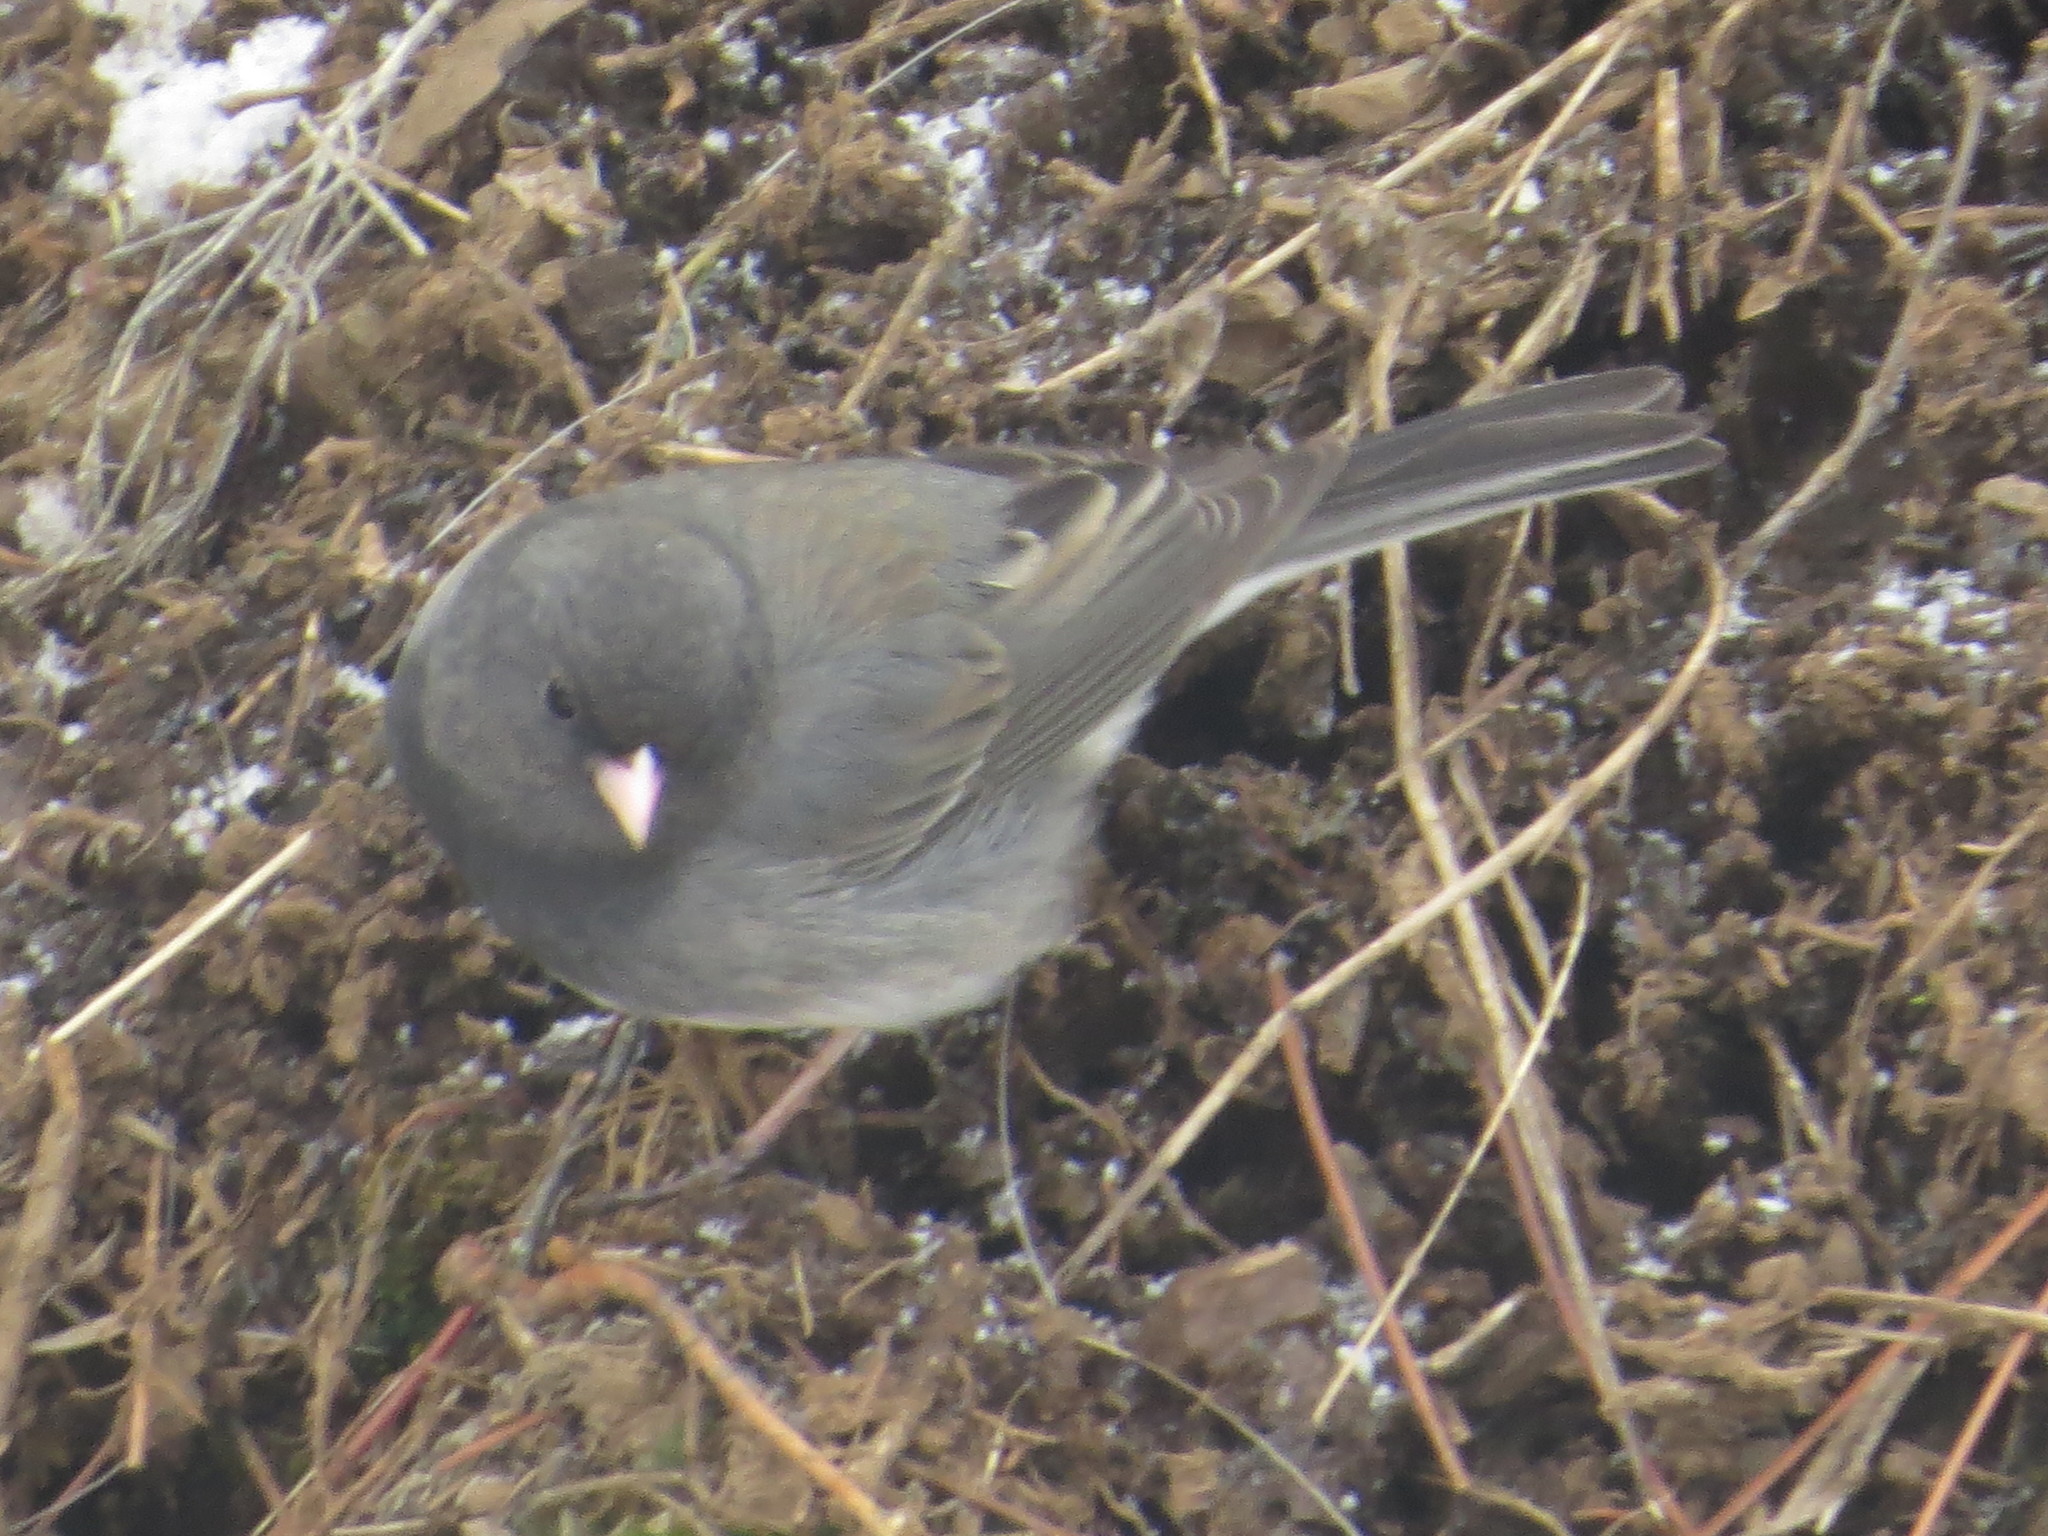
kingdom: Animalia
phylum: Chordata
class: Aves
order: Passeriformes
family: Passerellidae
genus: Junco
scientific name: Junco hyemalis
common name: Dark-eyed junco
